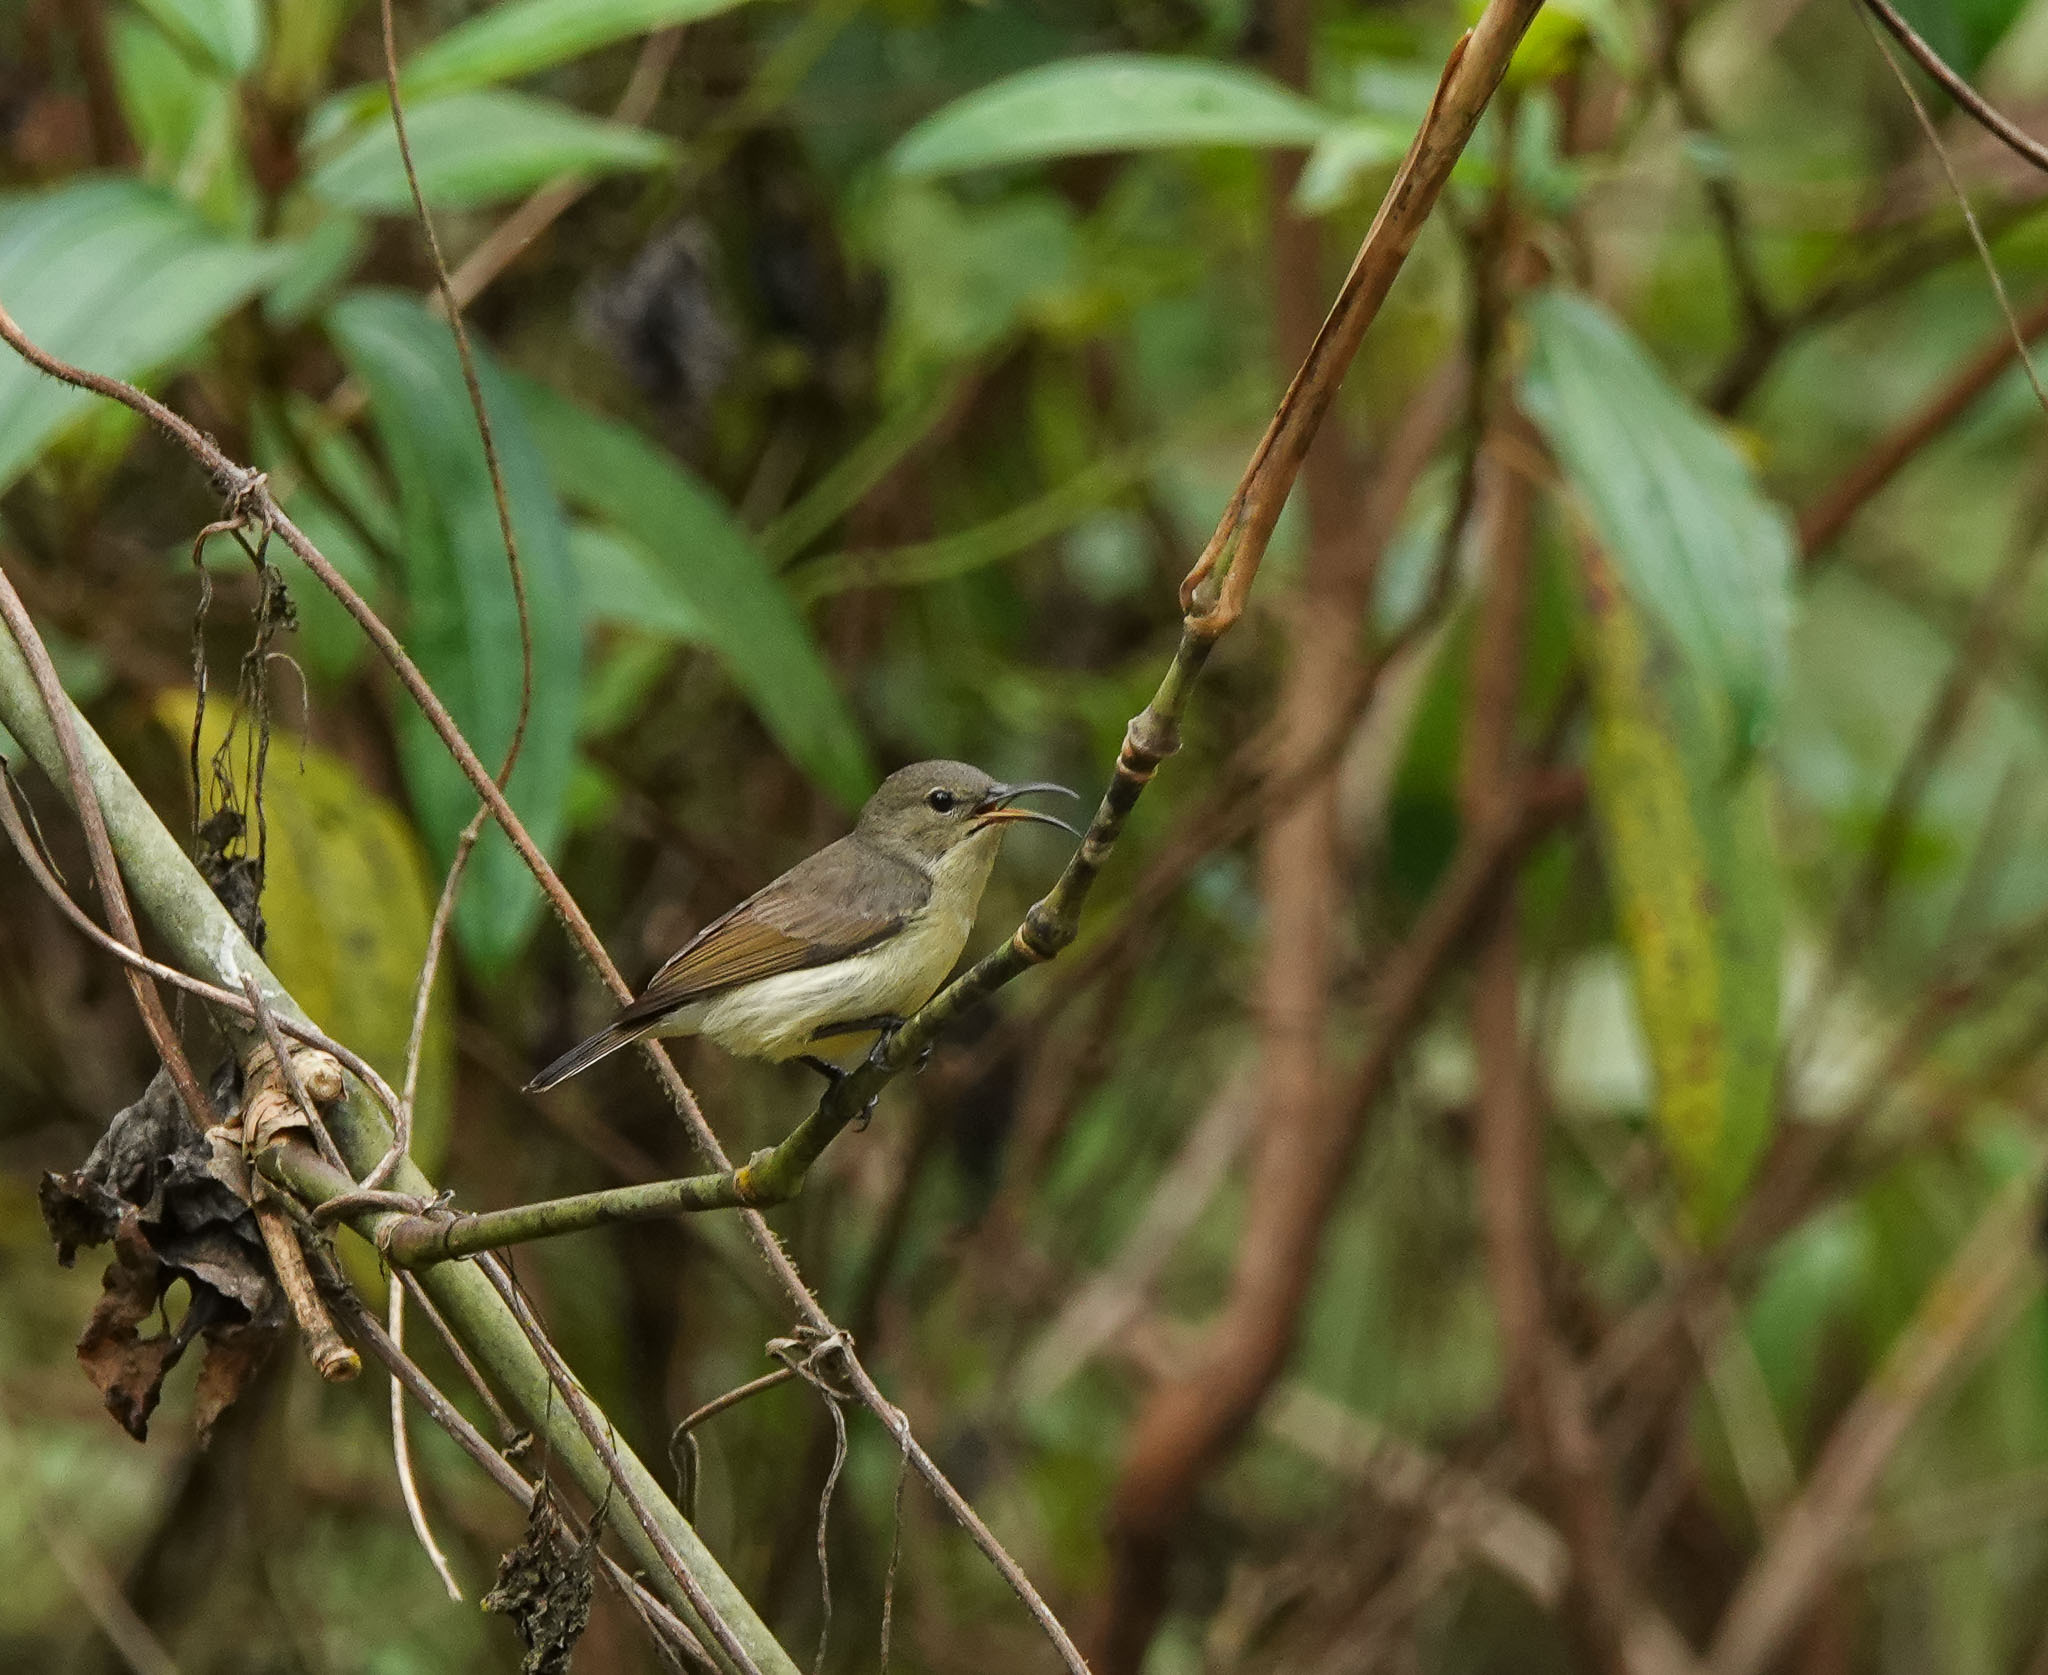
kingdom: Animalia
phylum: Chordata
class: Aves
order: Passeriformes
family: Nectariniidae
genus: Leptocoma
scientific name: Leptocoma brasiliana
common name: Van hasselt's sunbird
